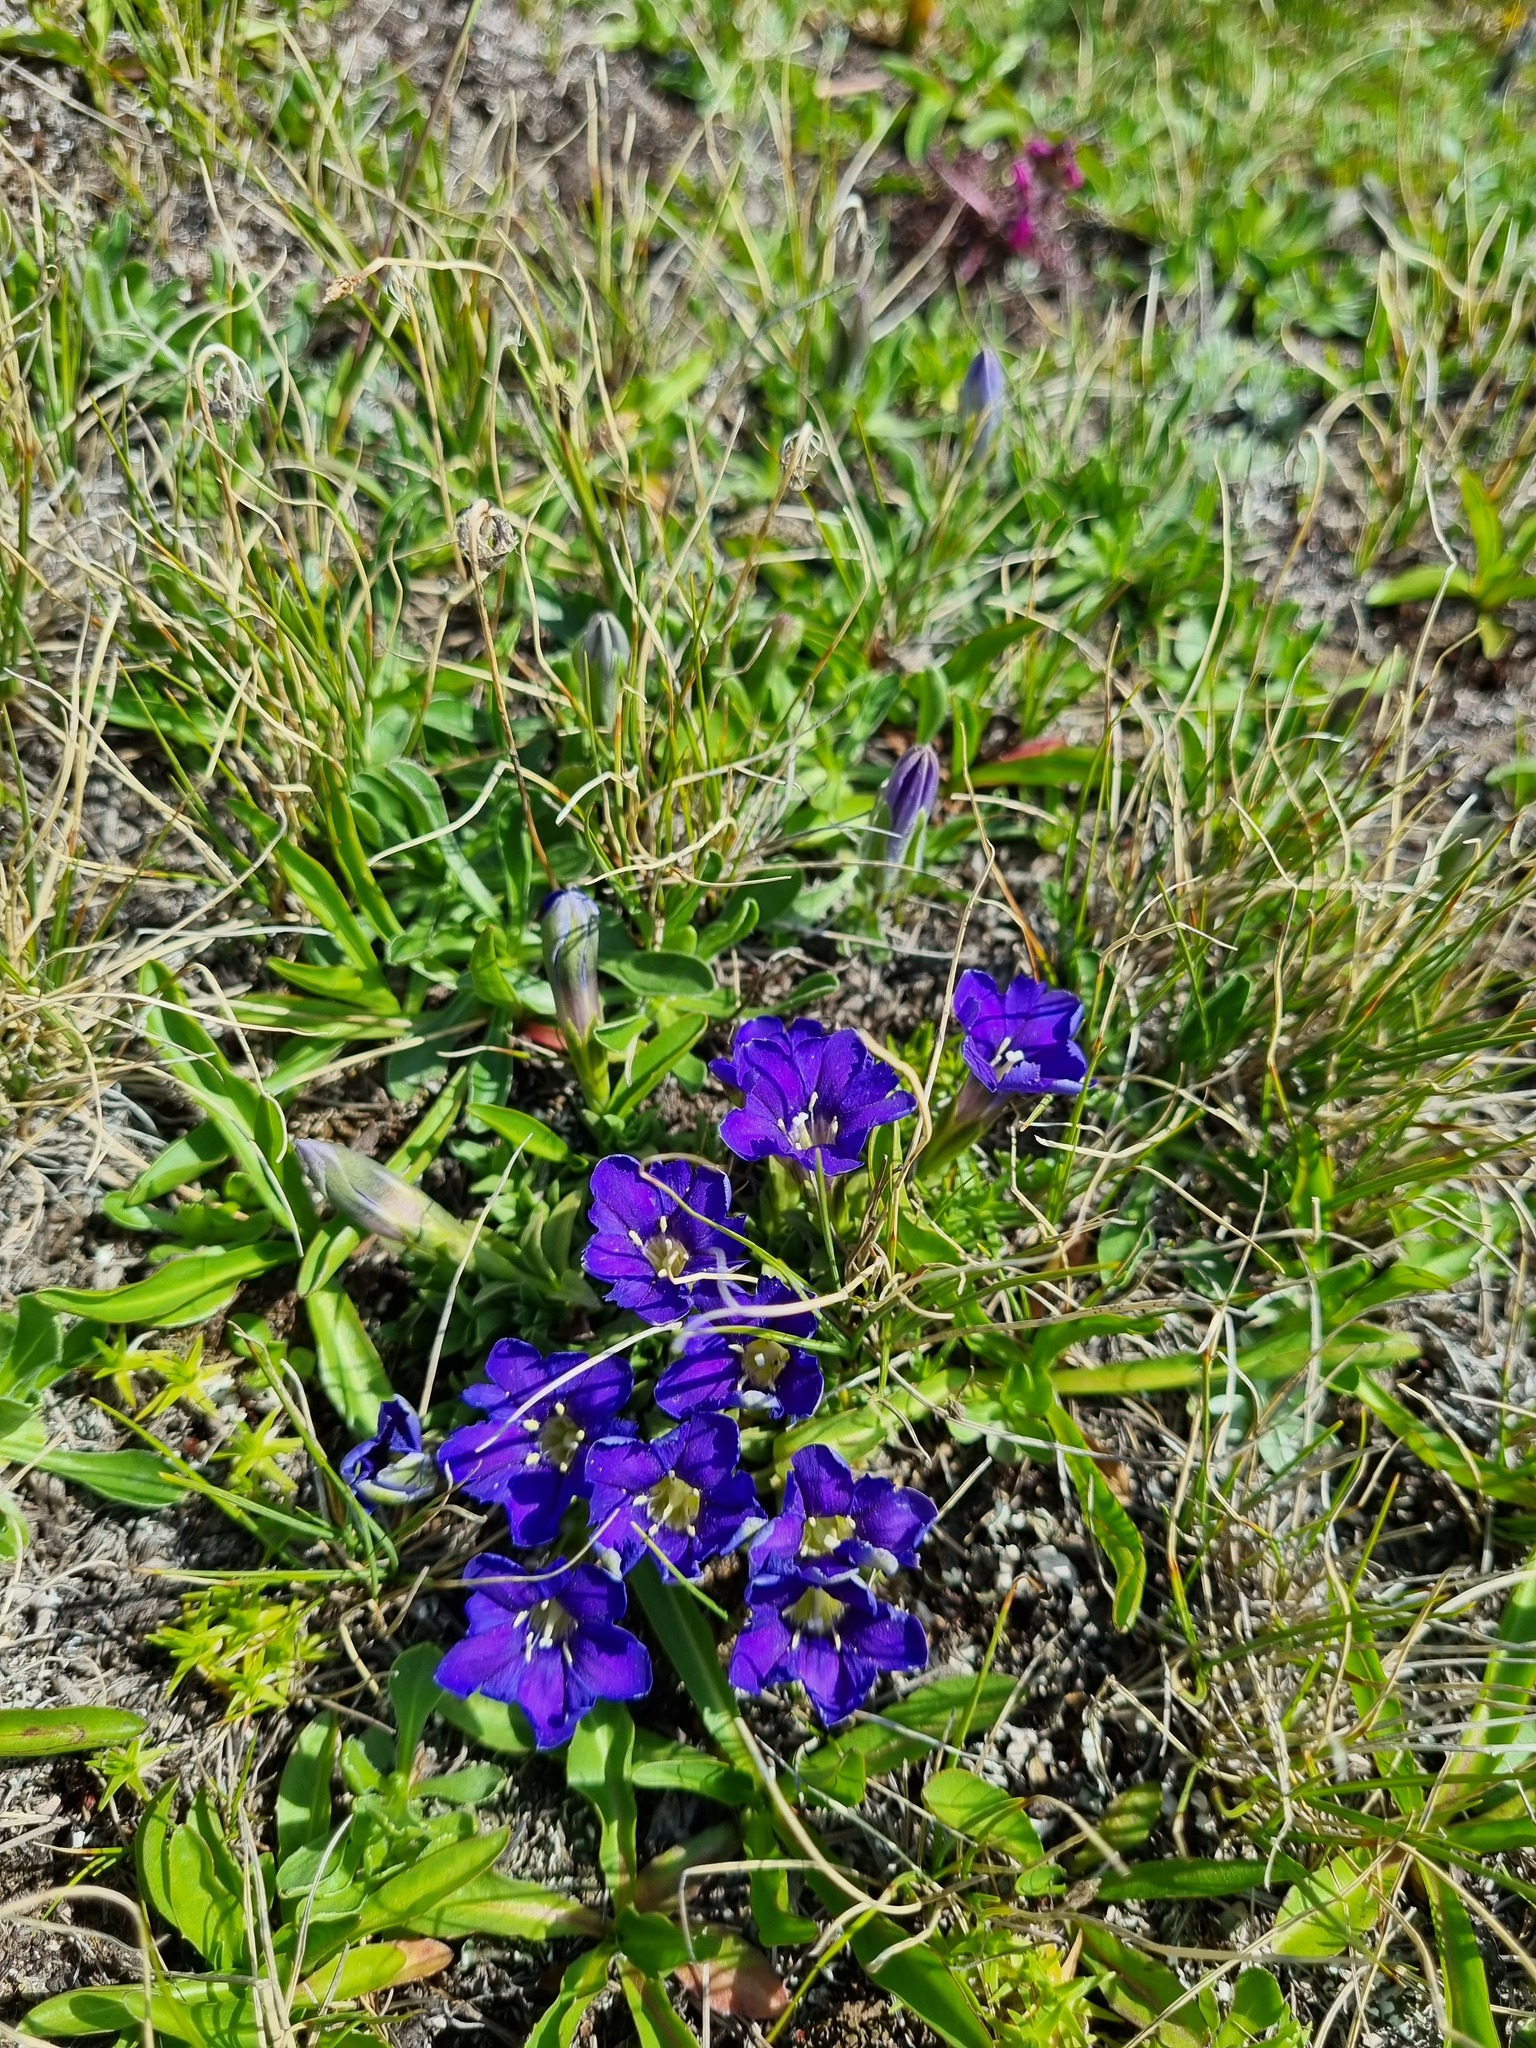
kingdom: Plantae
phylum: Tracheophyta
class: Magnoliopsida
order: Gentianales
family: Gentianaceae
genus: Gentiana
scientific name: Gentiana dshimilensis
